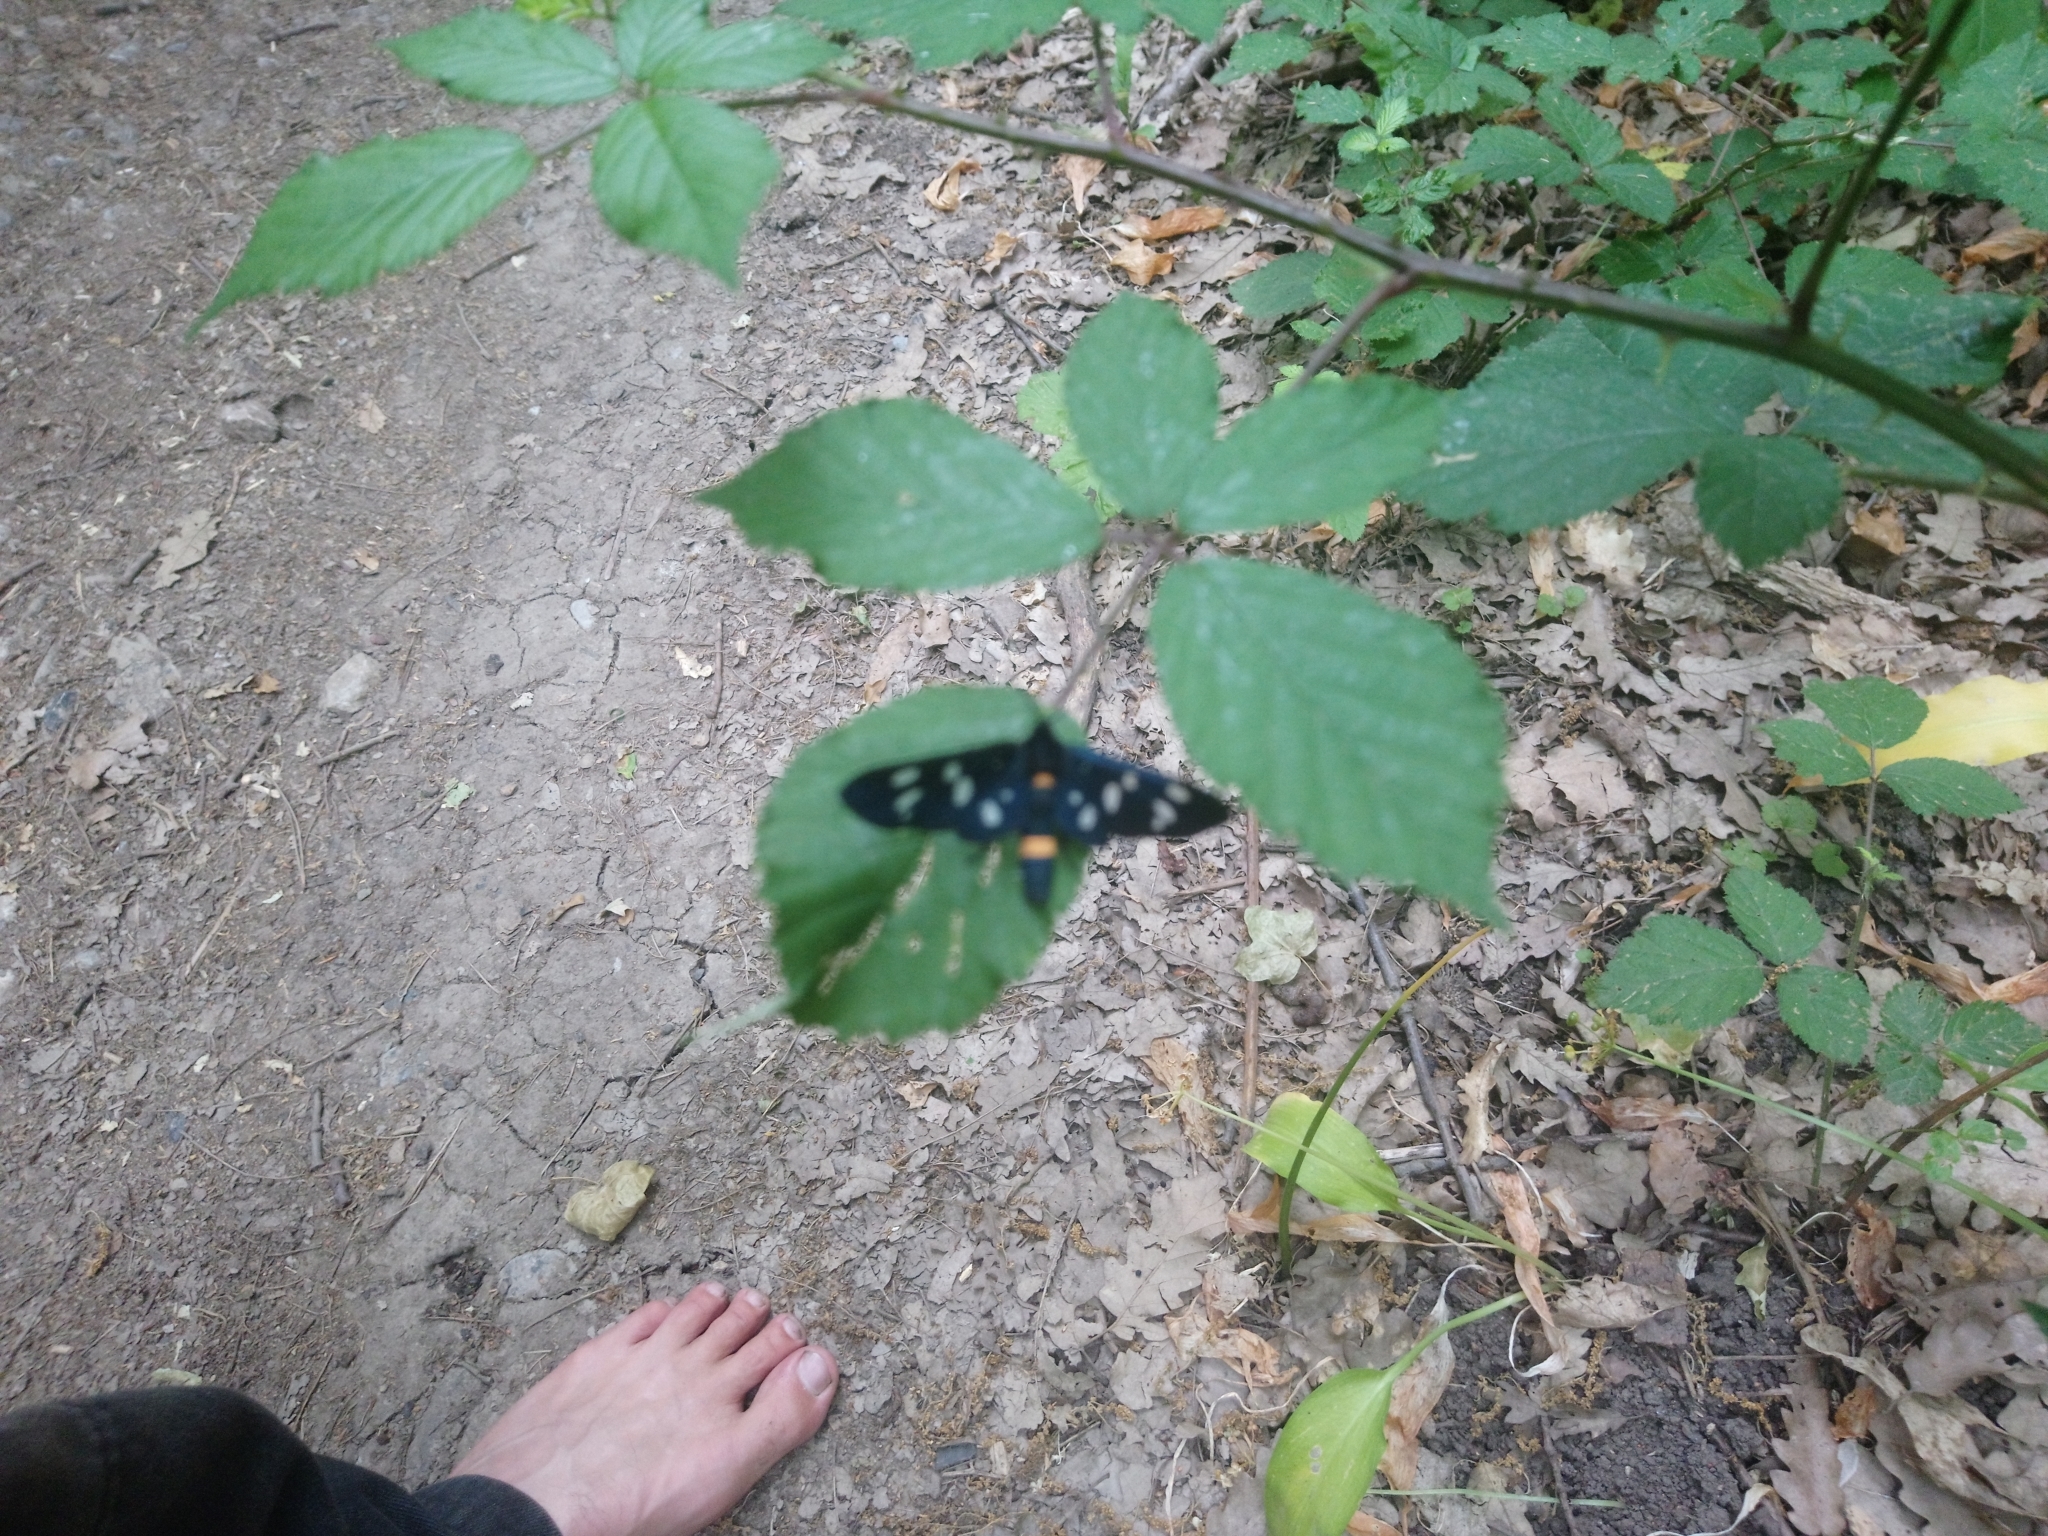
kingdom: Animalia
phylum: Arthropoda
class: Insecta
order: Lepidoptera
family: Erebidae
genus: Amata
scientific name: Amata phegea
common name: Nine-spotted
